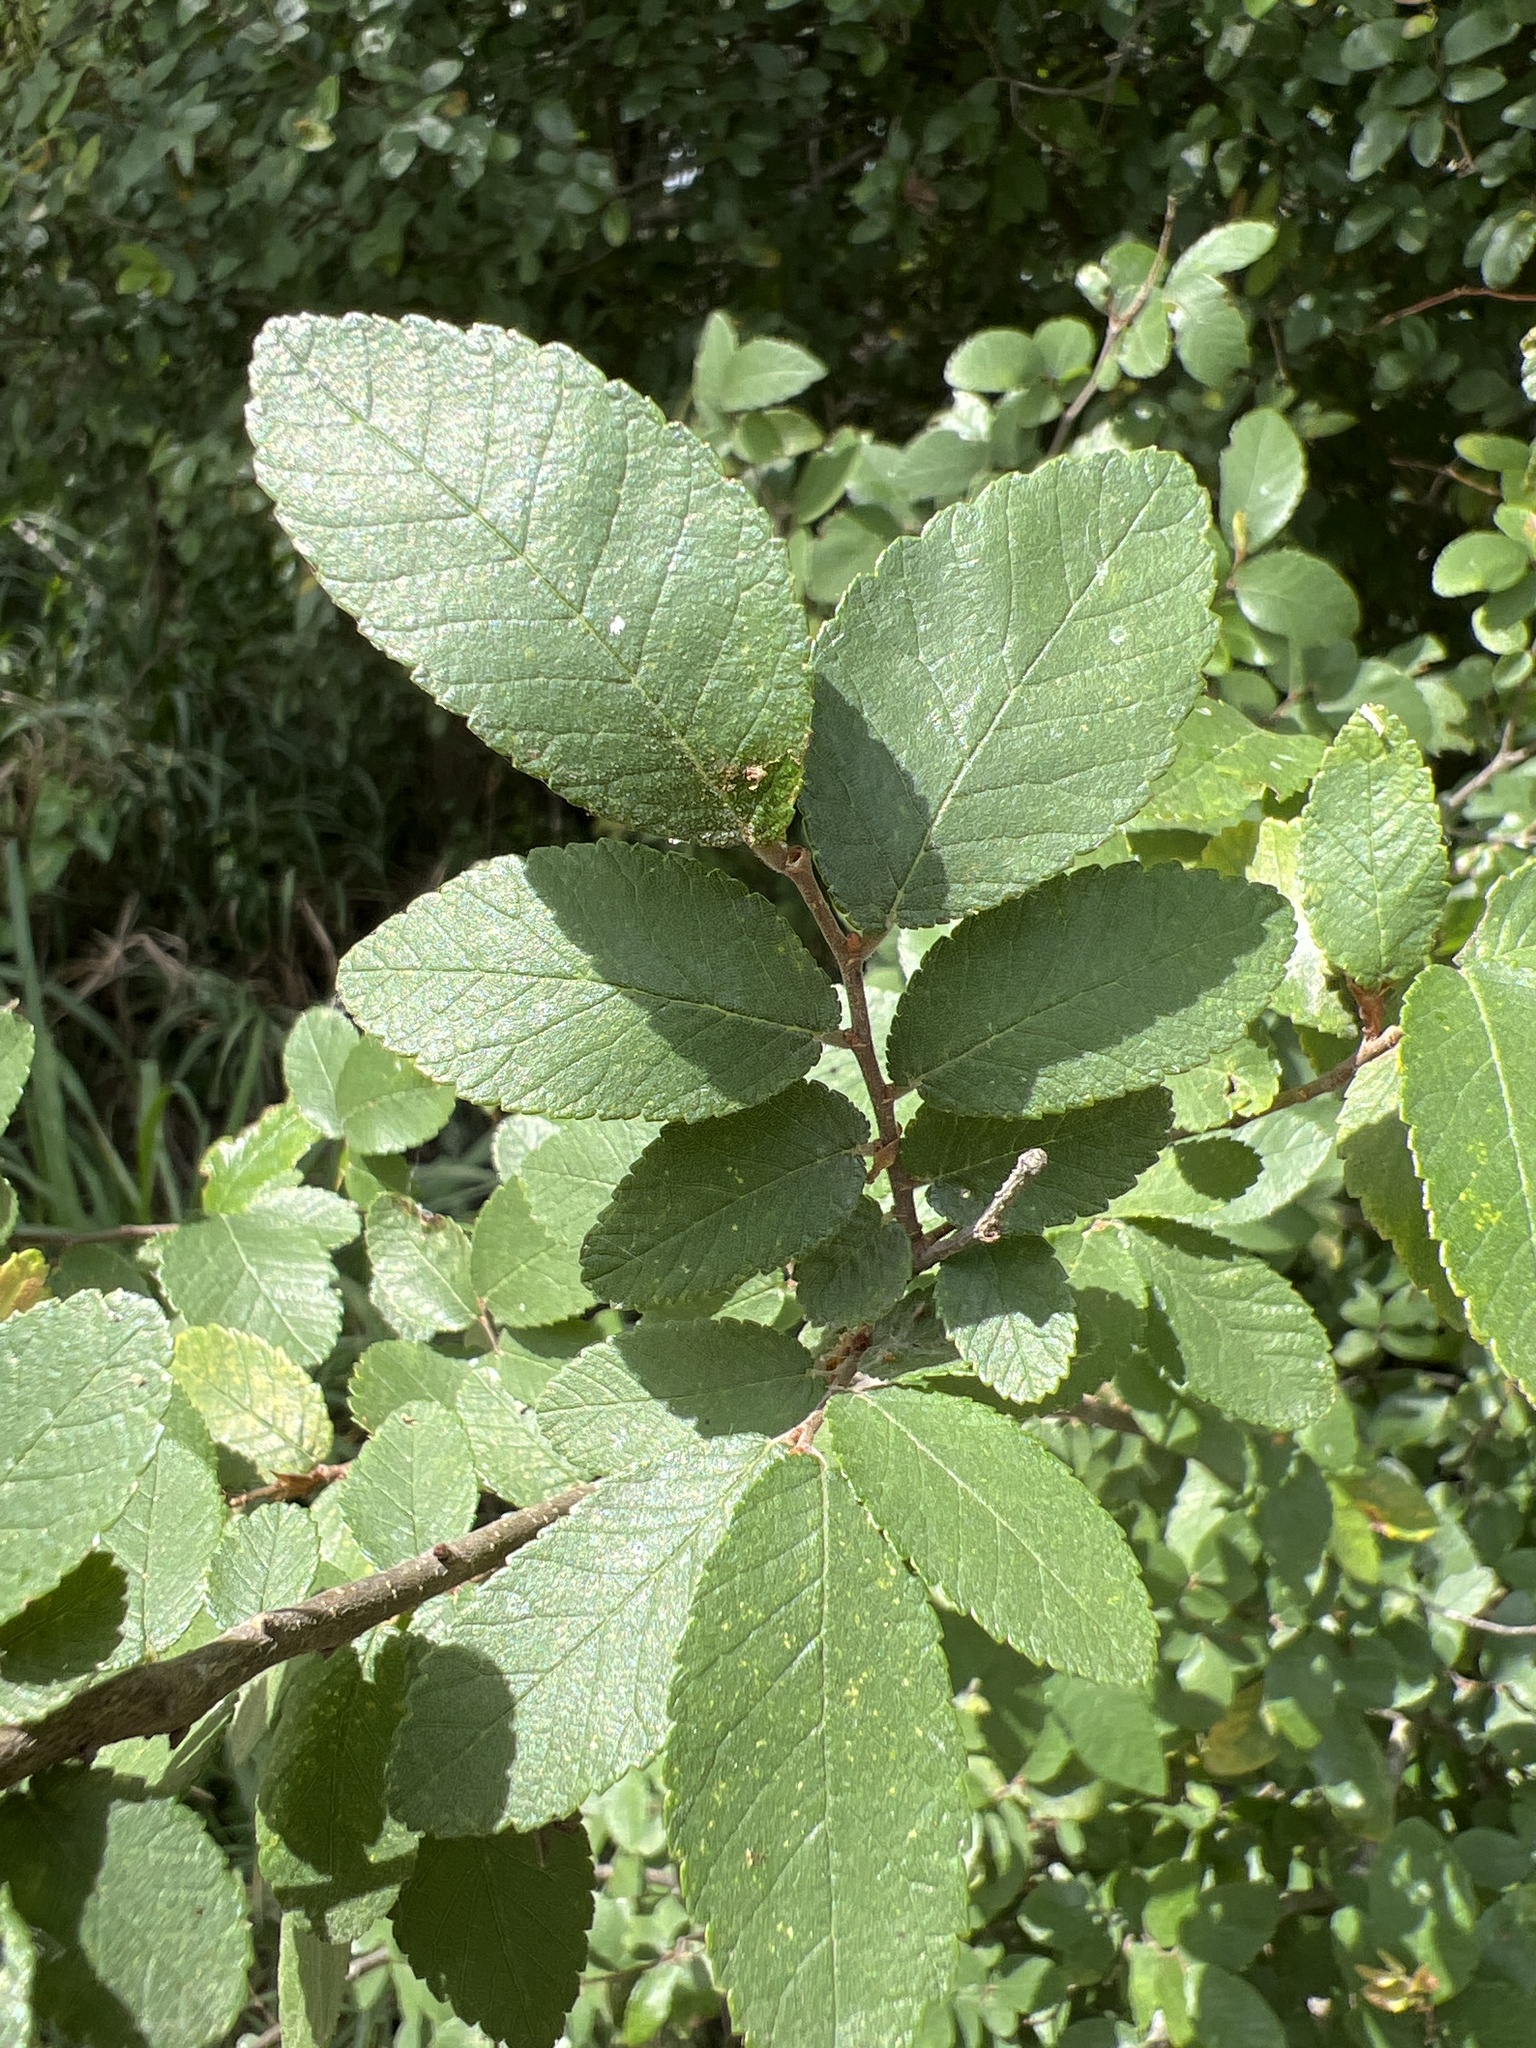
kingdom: Plantae
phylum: Tracheophyta
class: Magnoliopsida
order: Rosales
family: Ulmaceae
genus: Ulmus
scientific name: Ulmus crassifolia
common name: Basket elm
